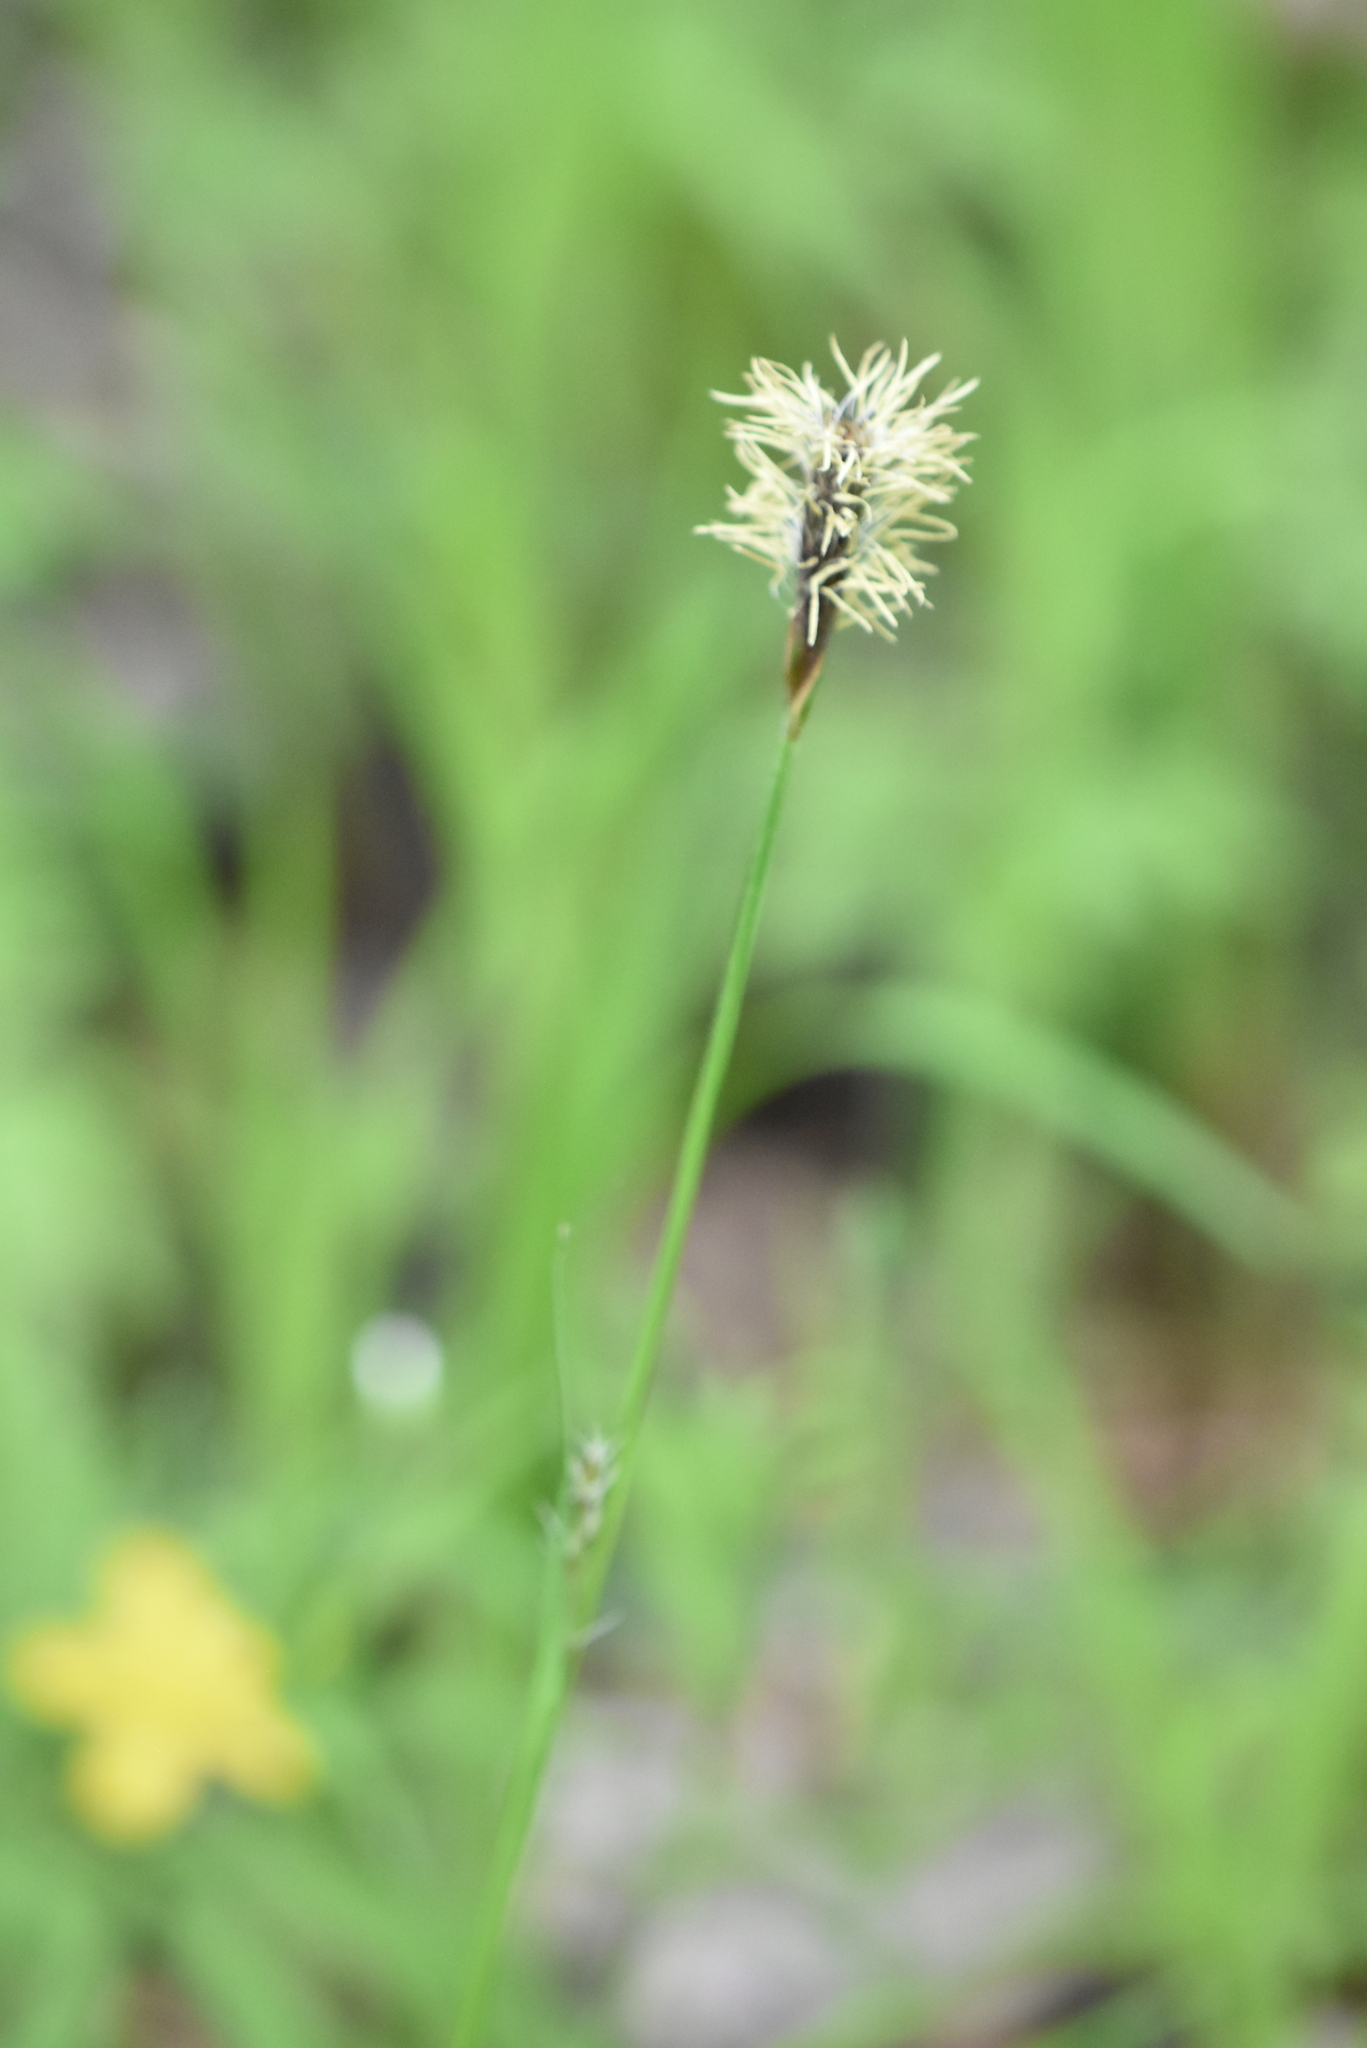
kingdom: Plantae
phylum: Tracheophyta
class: Liliopsida
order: Poales
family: Cyperaceae
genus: Carex
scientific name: Carex pilosa
